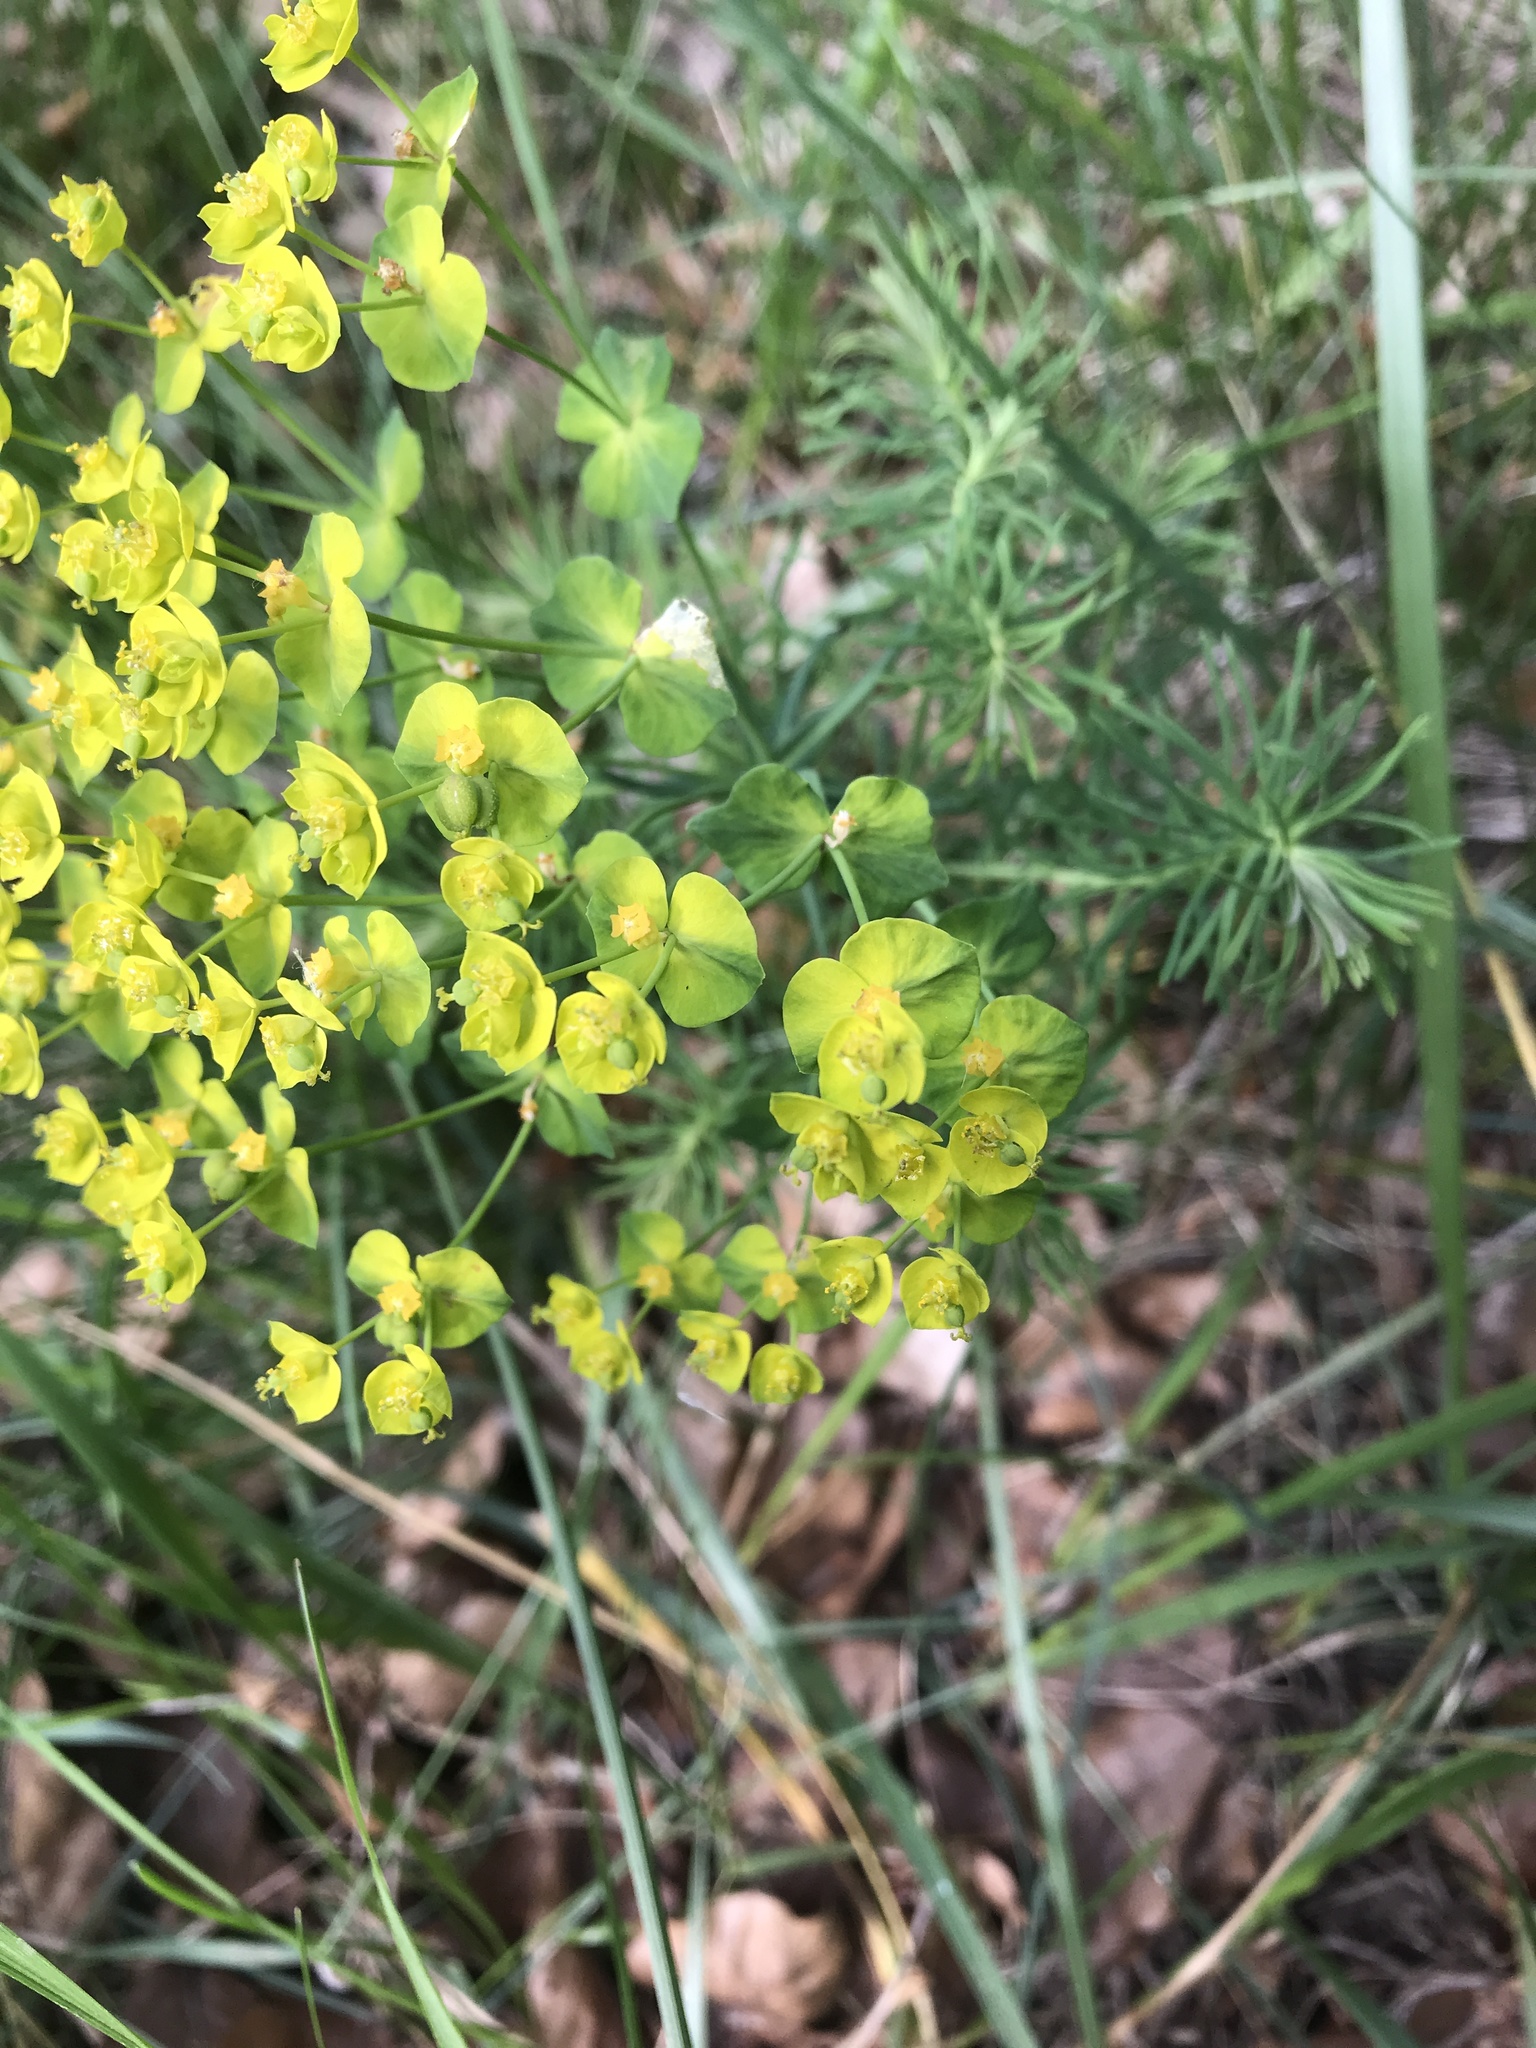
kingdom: Plantae
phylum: Tracheophyta
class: Magnoliopsida
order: Malpighiales
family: Euphorbiaceae
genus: Euphorbia
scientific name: Euphorbia cyparissias
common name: Cypress spurge
